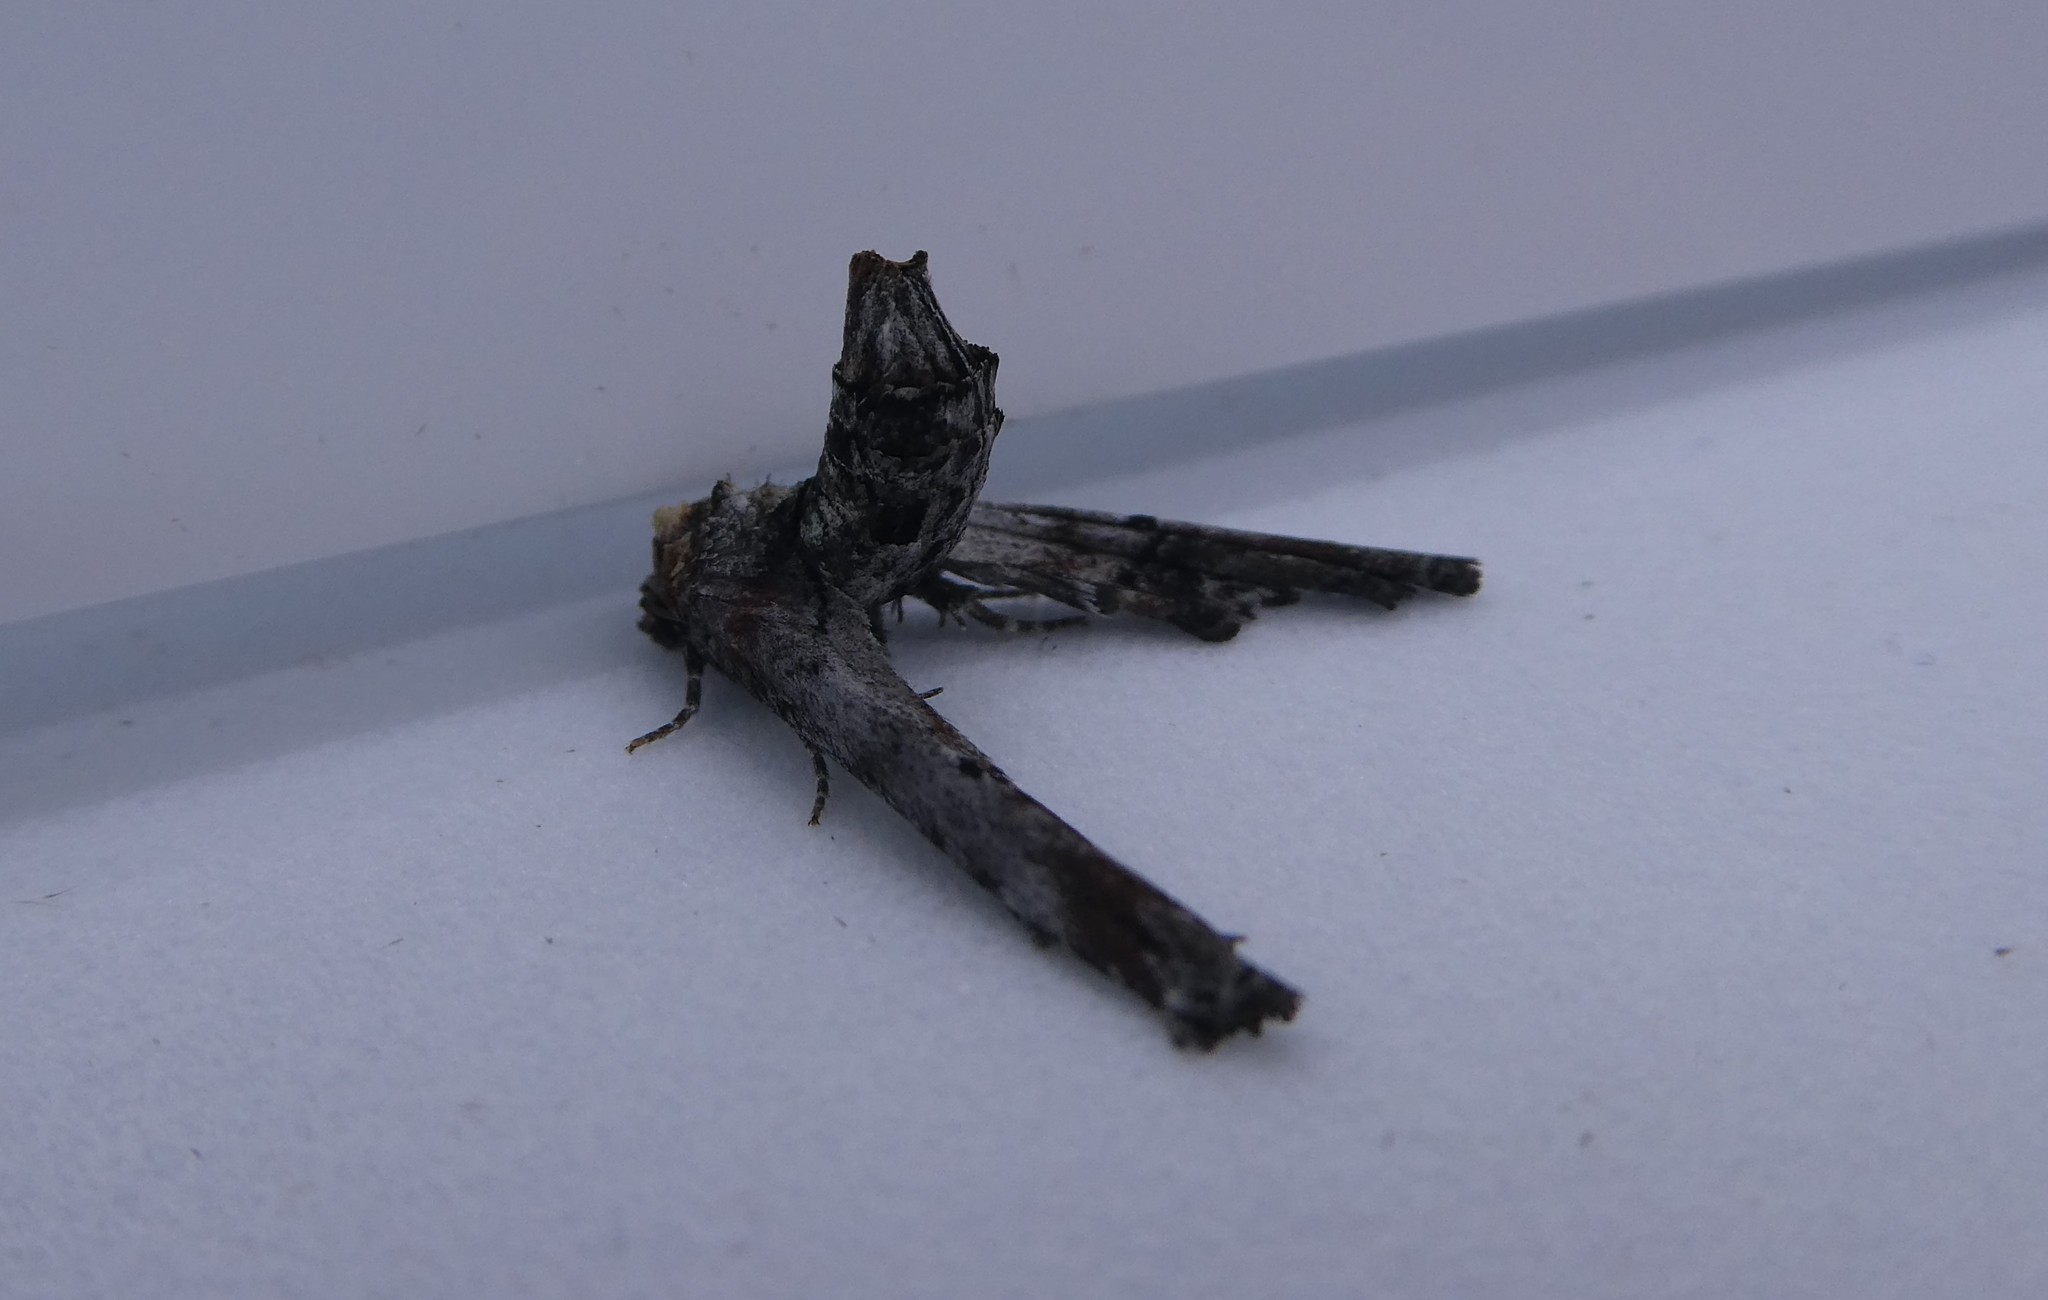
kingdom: Animalia
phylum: Arthropoda
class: Insecta
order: Lepidoptera
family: Euteliidae
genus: Marathyssa
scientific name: Marathyssa inficita
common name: Dark marathyssa moth
